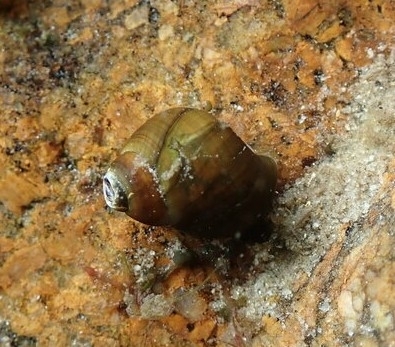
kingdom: Animalia
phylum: Mollusca
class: Gastropoda
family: Pleuroceridae
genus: Leptoxis
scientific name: Leptoxis carinata
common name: Crested mudalia
